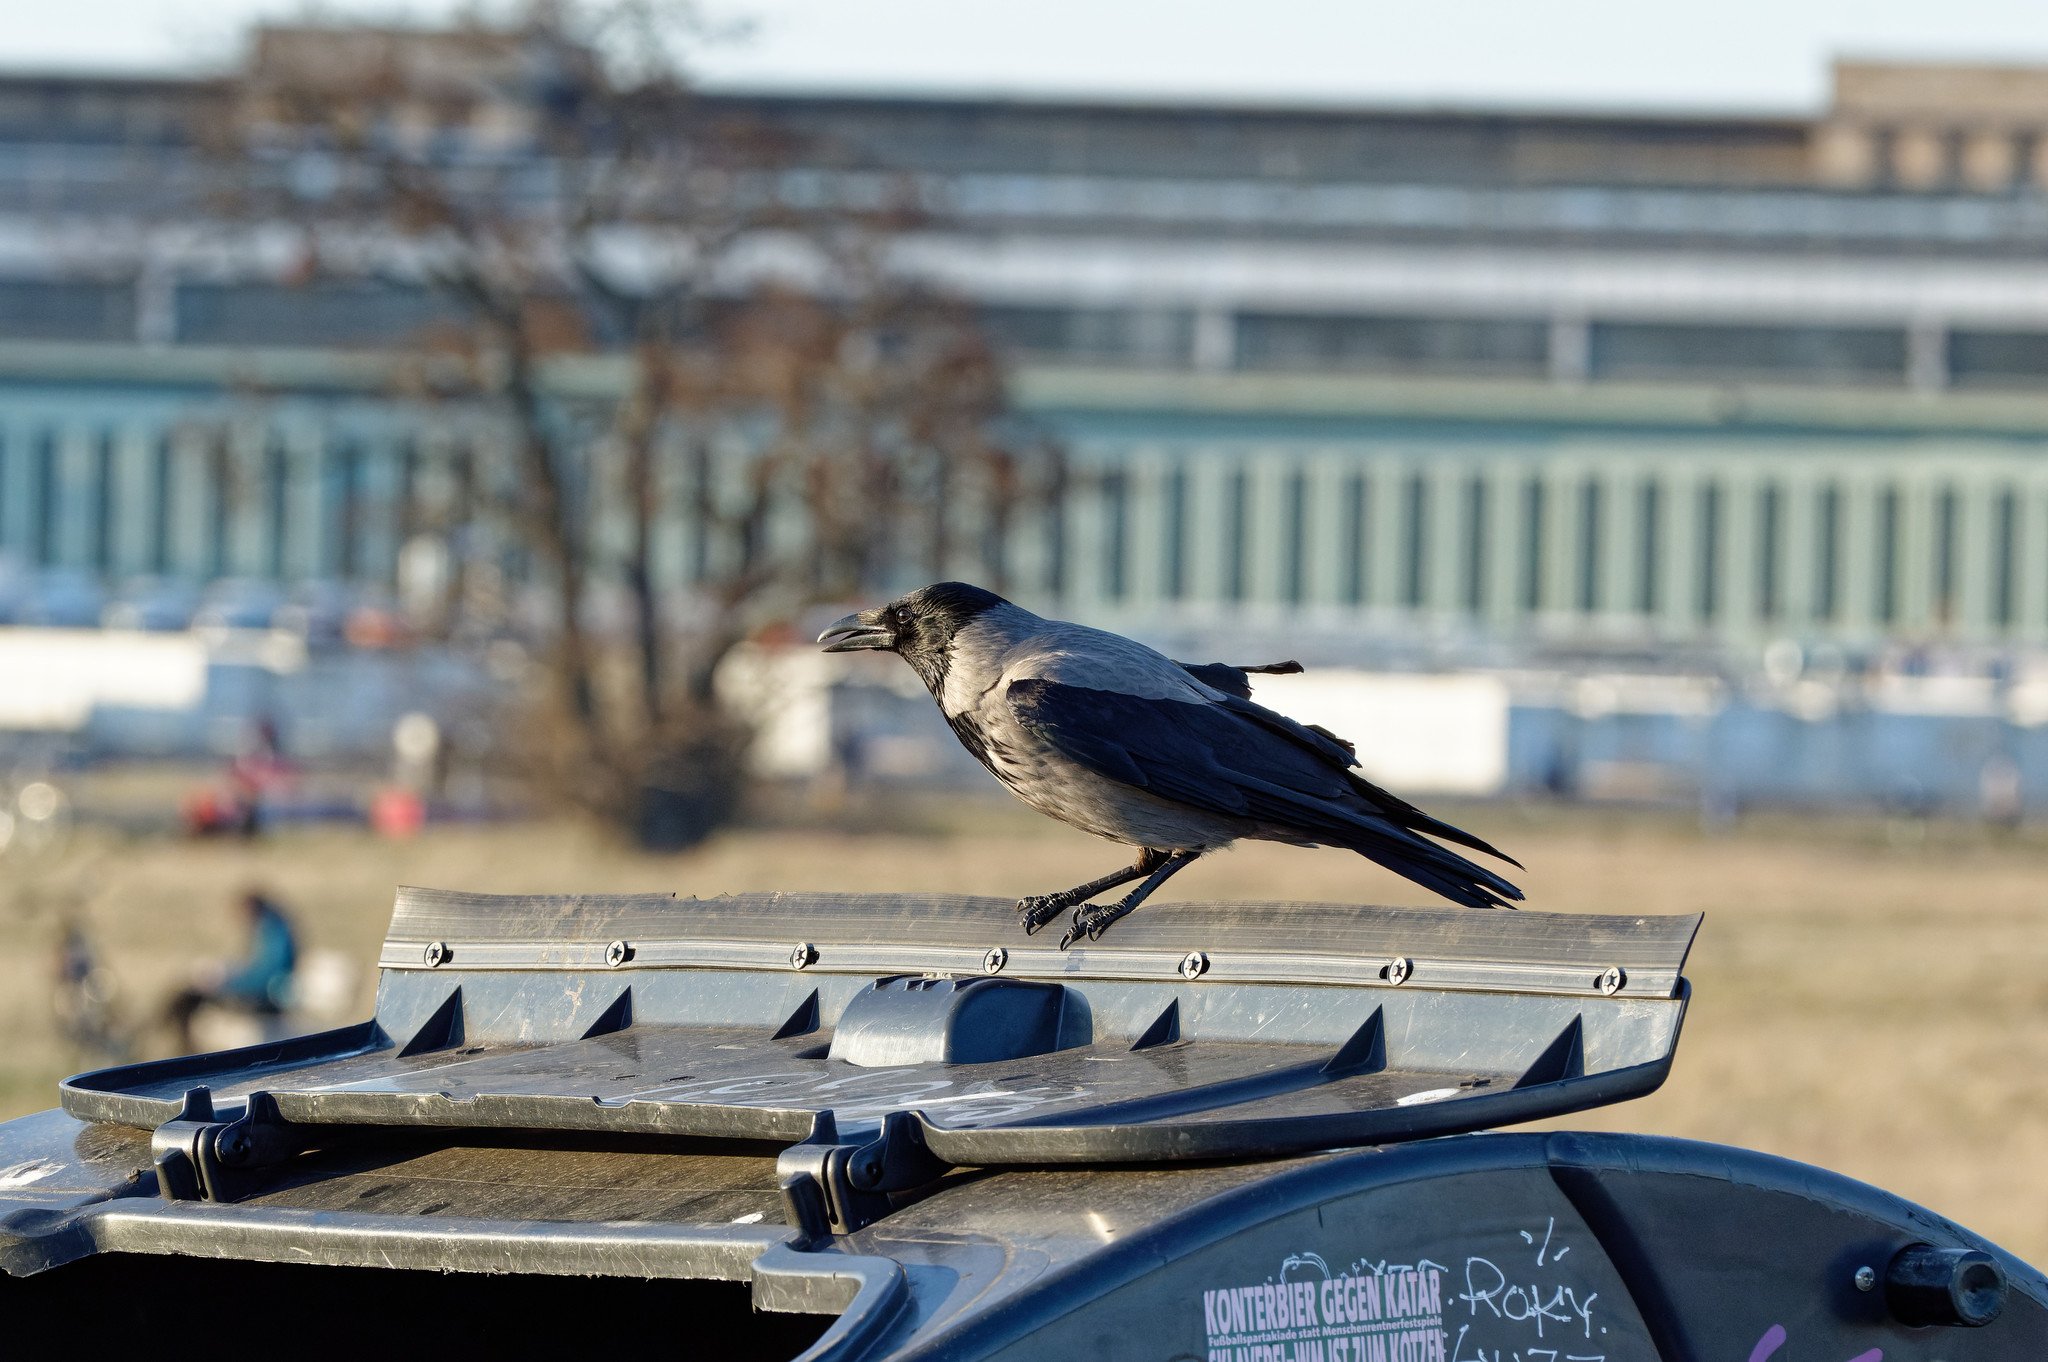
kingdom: Animalia
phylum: Chordata
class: Aves
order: Passeriformes
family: Corvidae
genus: Corvus
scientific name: Corvus cornix
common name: Hooded crow
